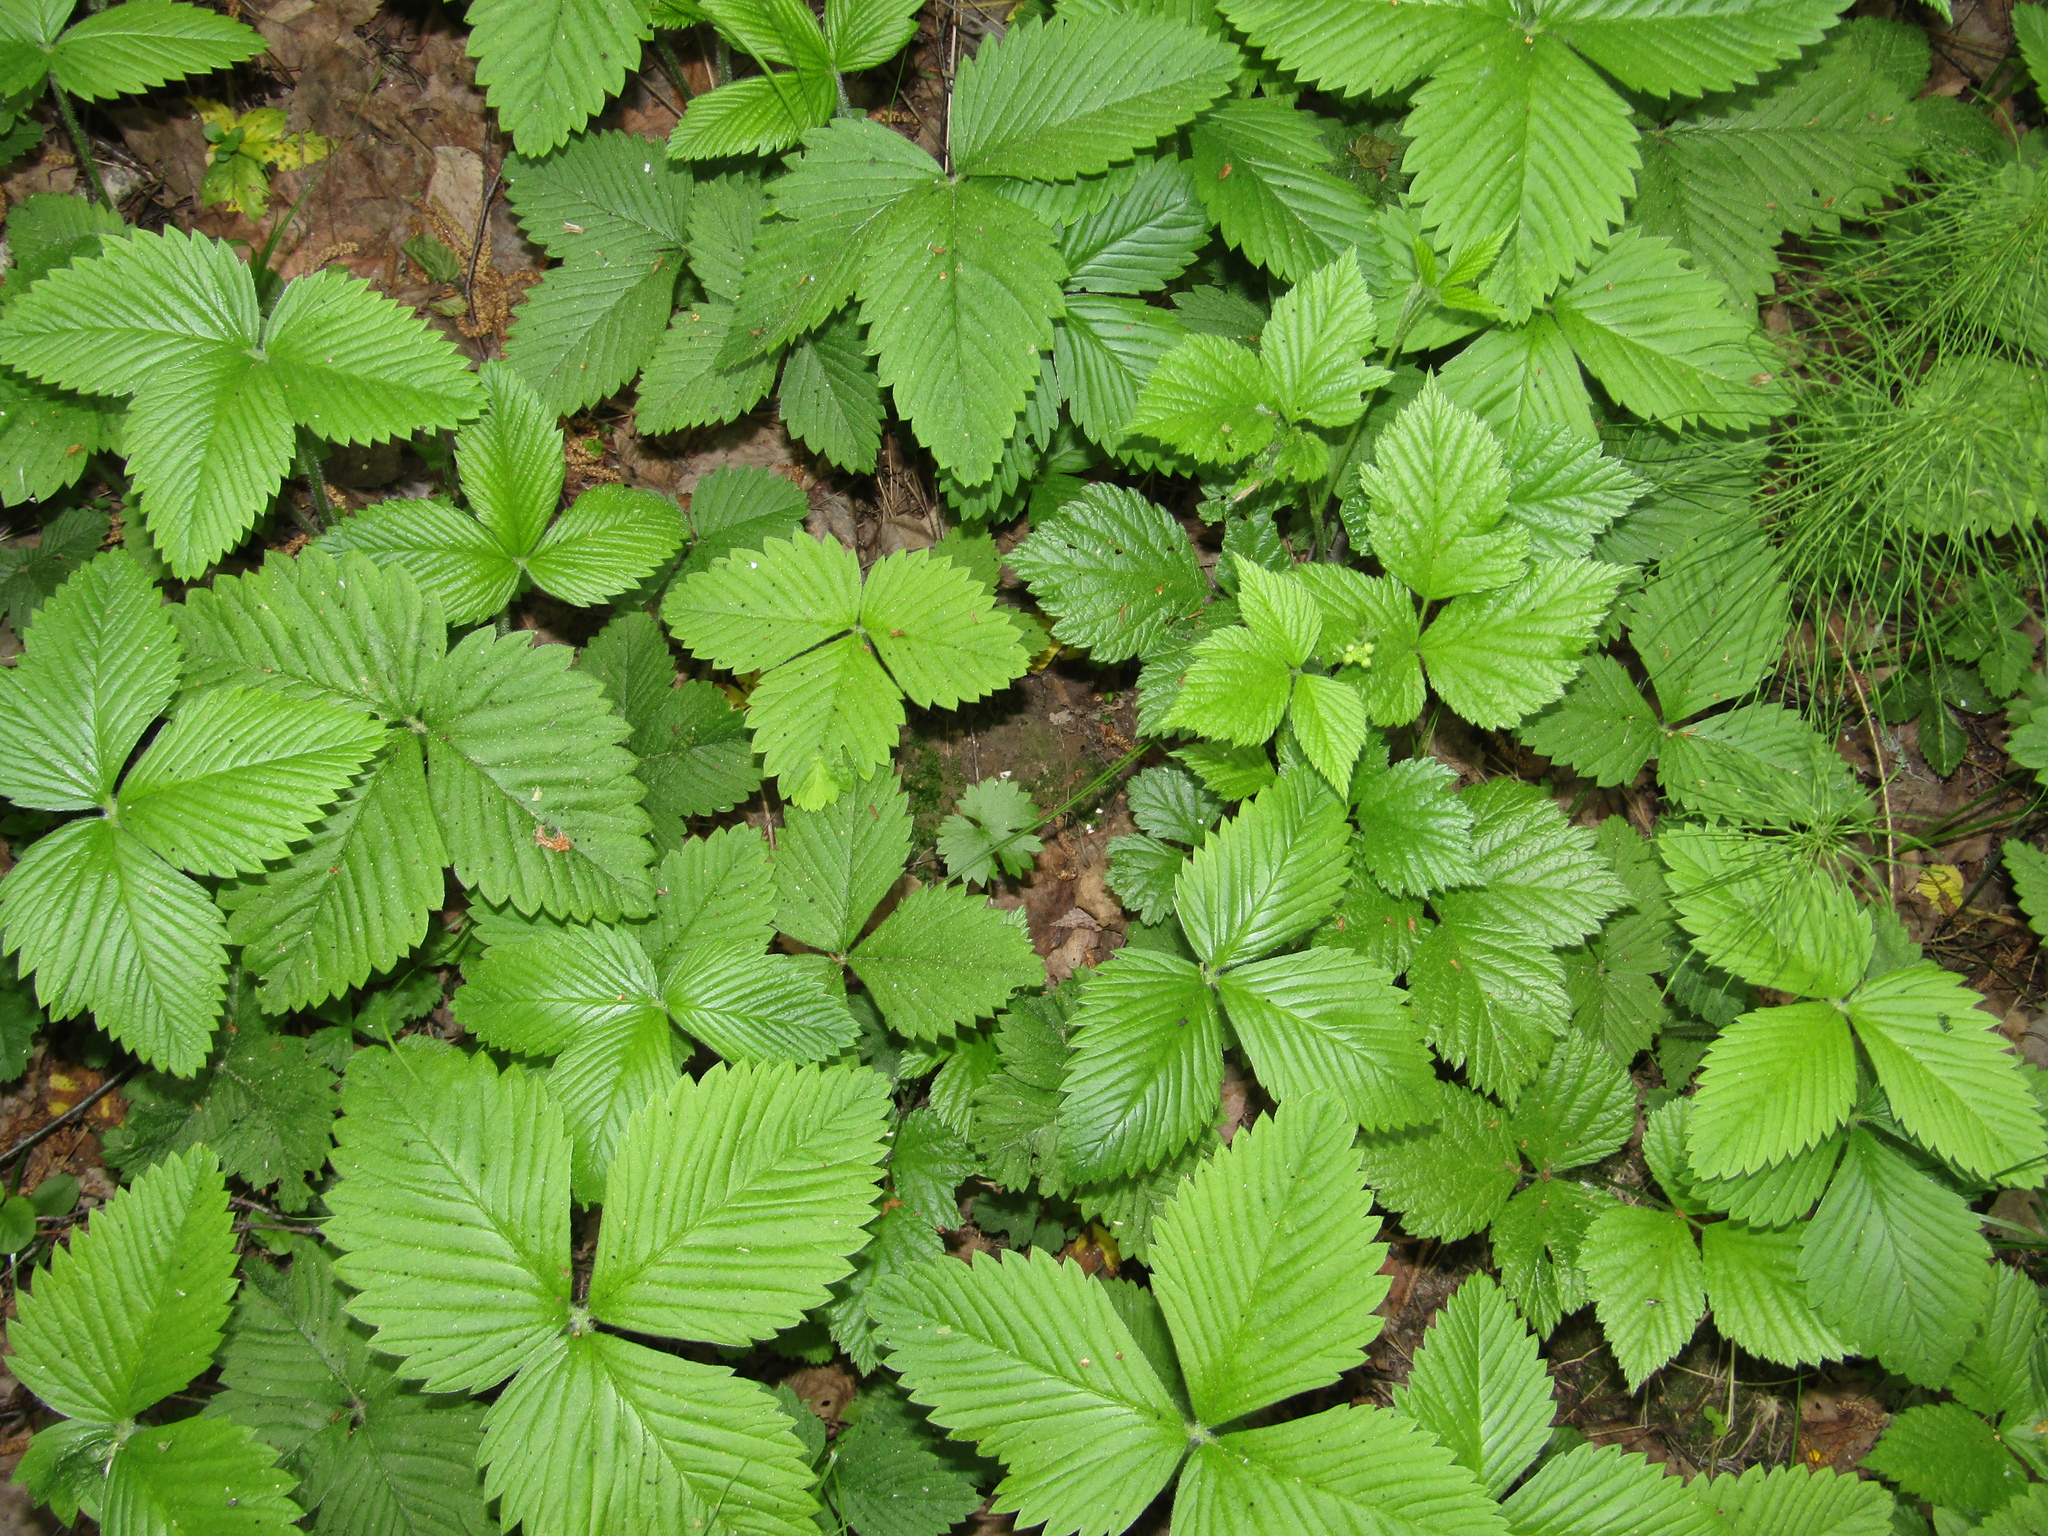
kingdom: Plantae
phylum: Tracheophyta
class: Magnoliopsida
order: Rosales
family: Rosaceae
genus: Fragaria
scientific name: Fragaria moschata
